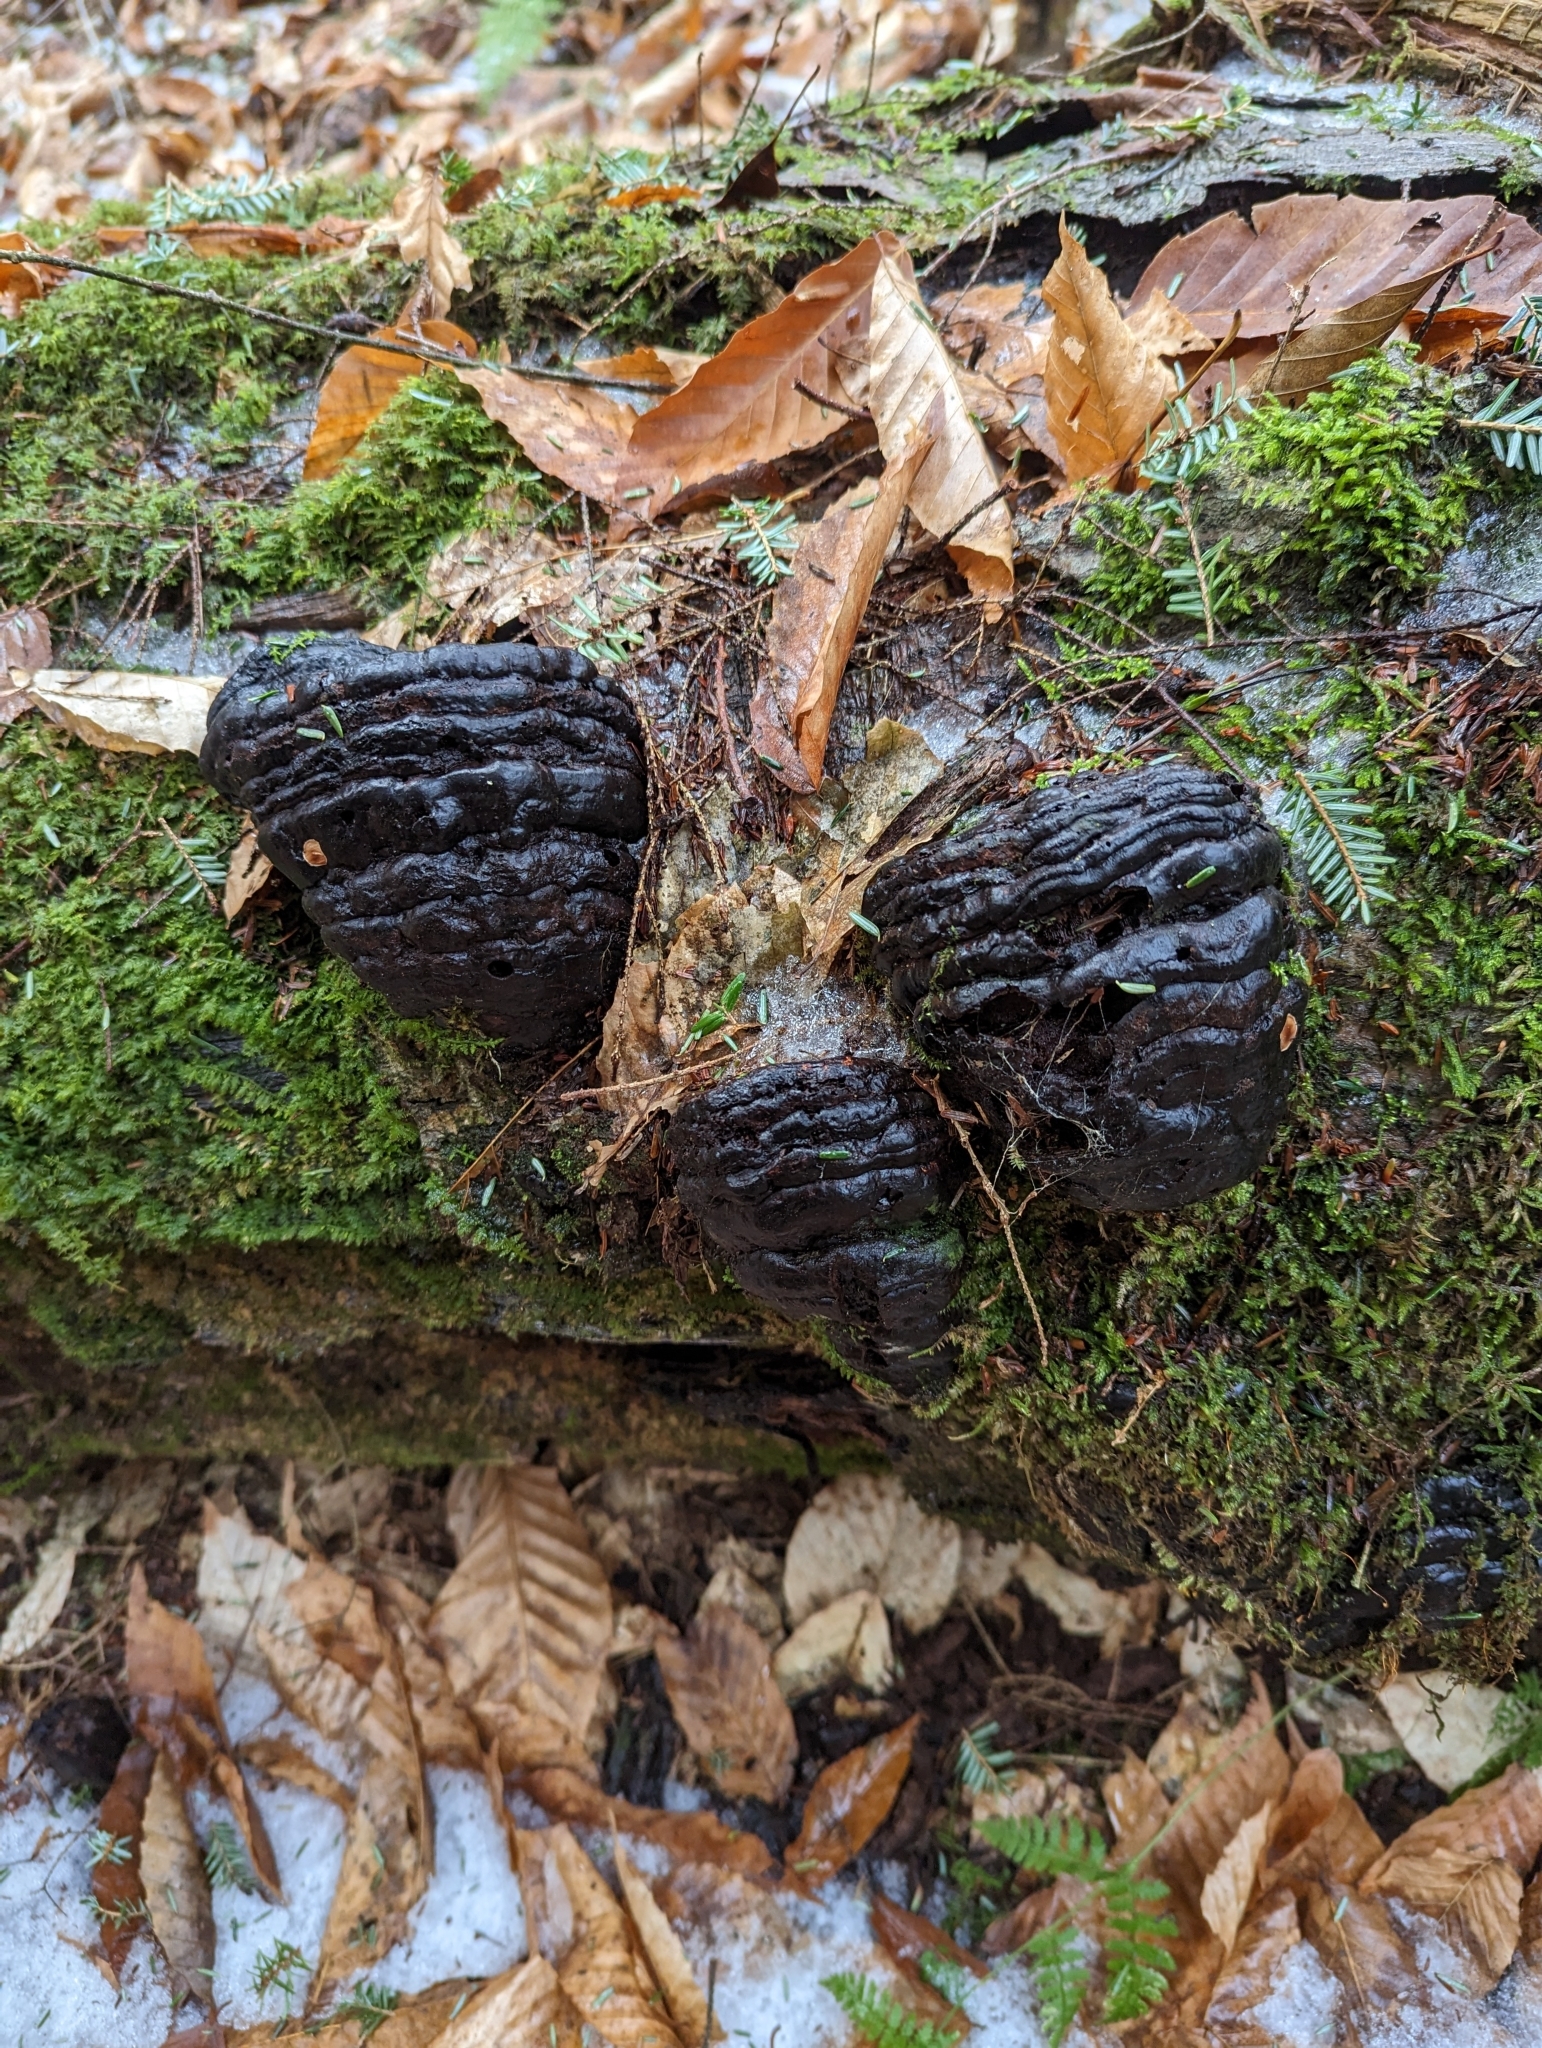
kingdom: Fungi
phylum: Basidiomycota
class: Agaricomycetes
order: Polyporales
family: Polyporaceae
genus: Fomes
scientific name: Fomes fomentarius
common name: Hoof fungus
